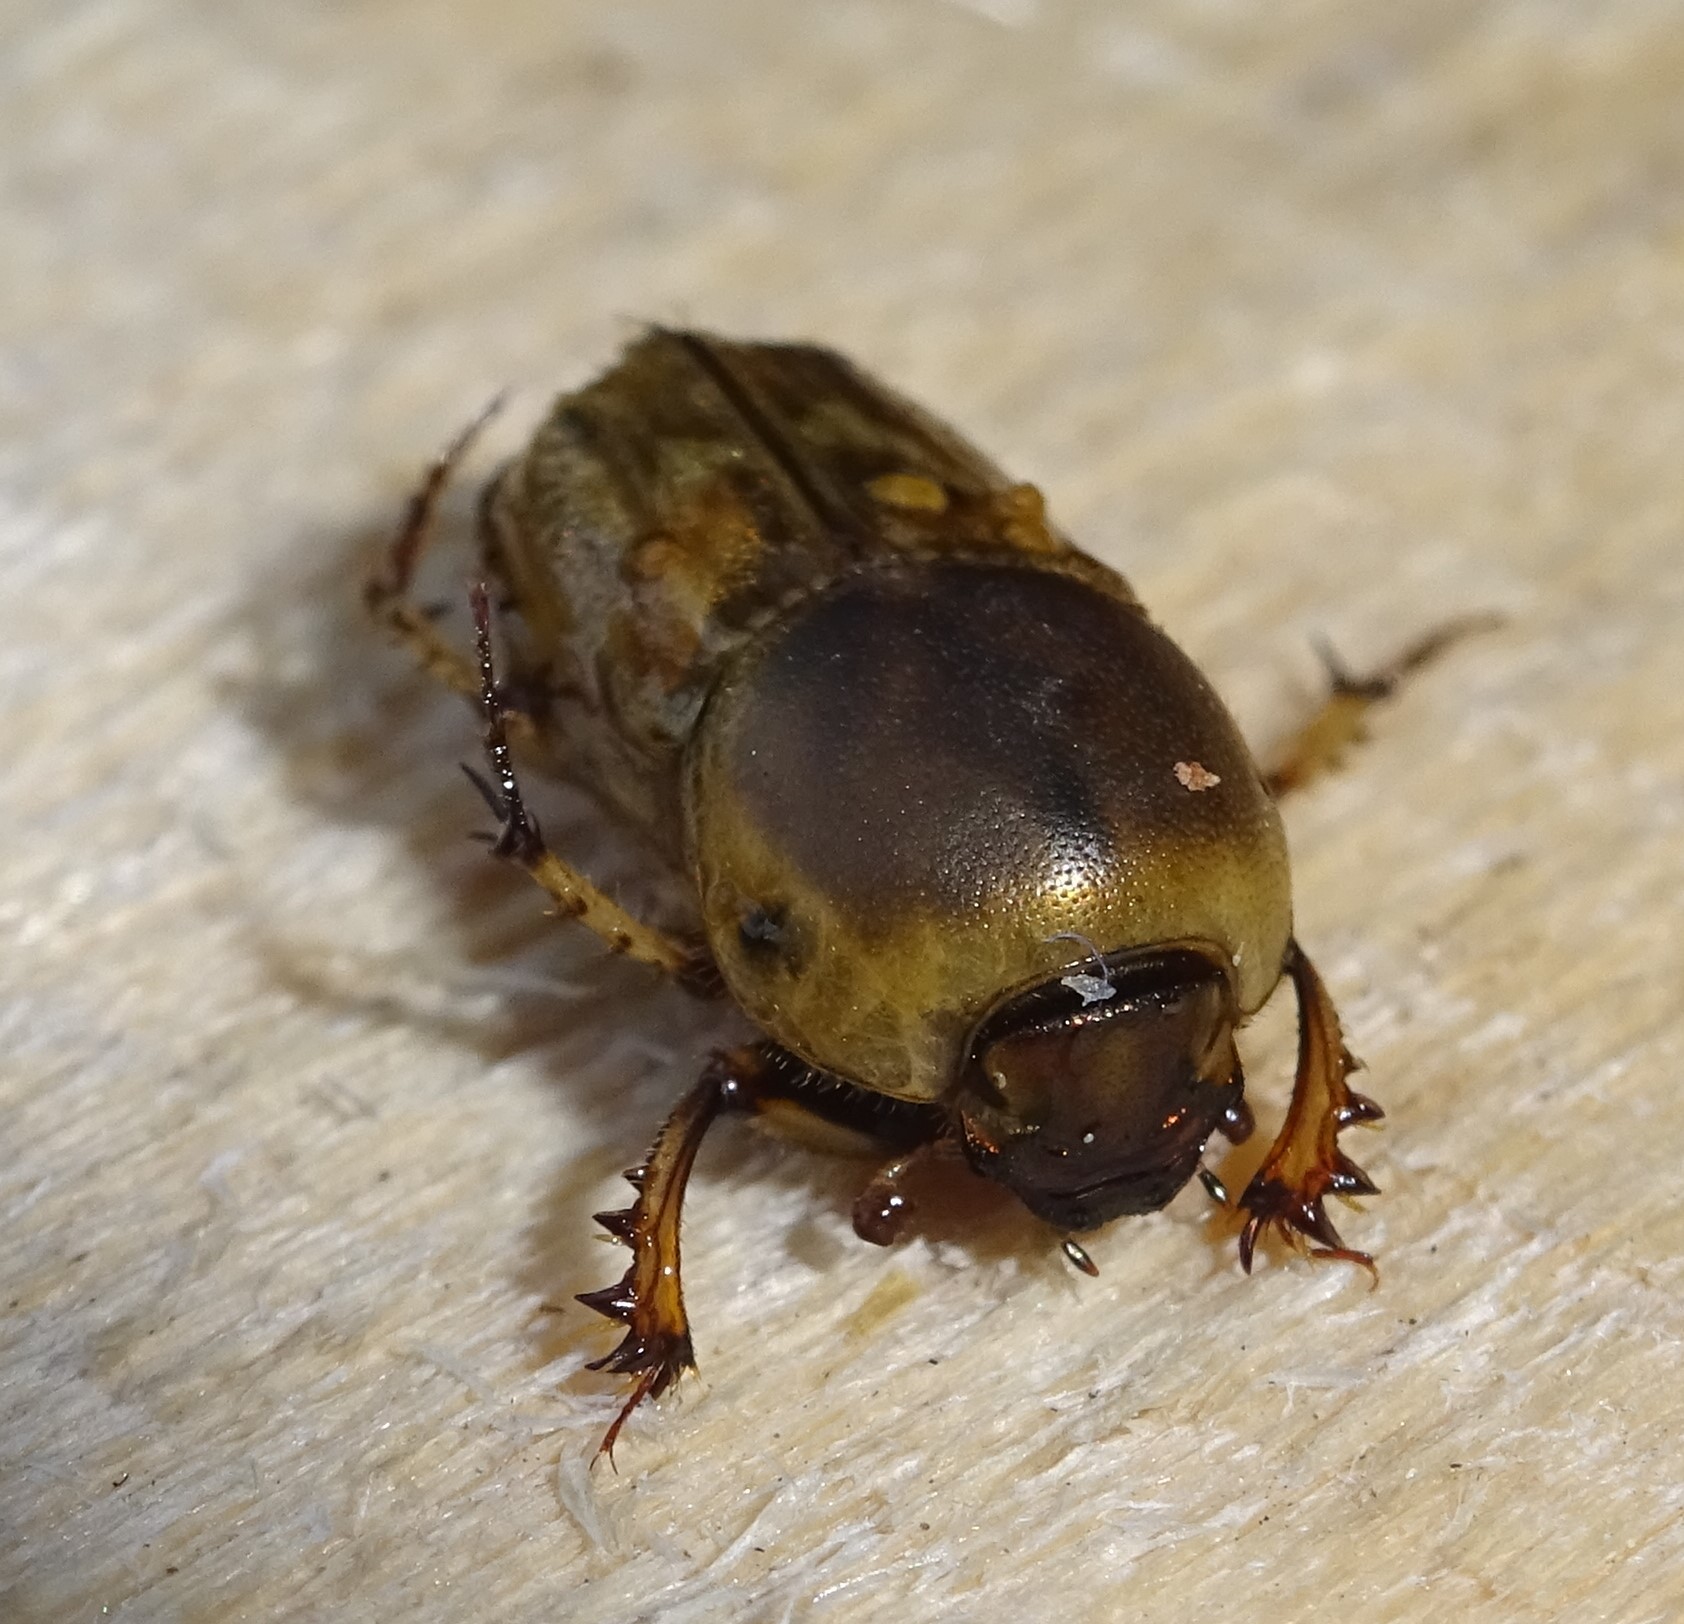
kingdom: Animalia
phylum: Arthropoda
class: Insecta
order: Coleoptera
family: Scarabaeidae
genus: Euoniticellus
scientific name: Euoniticellus fulvus
